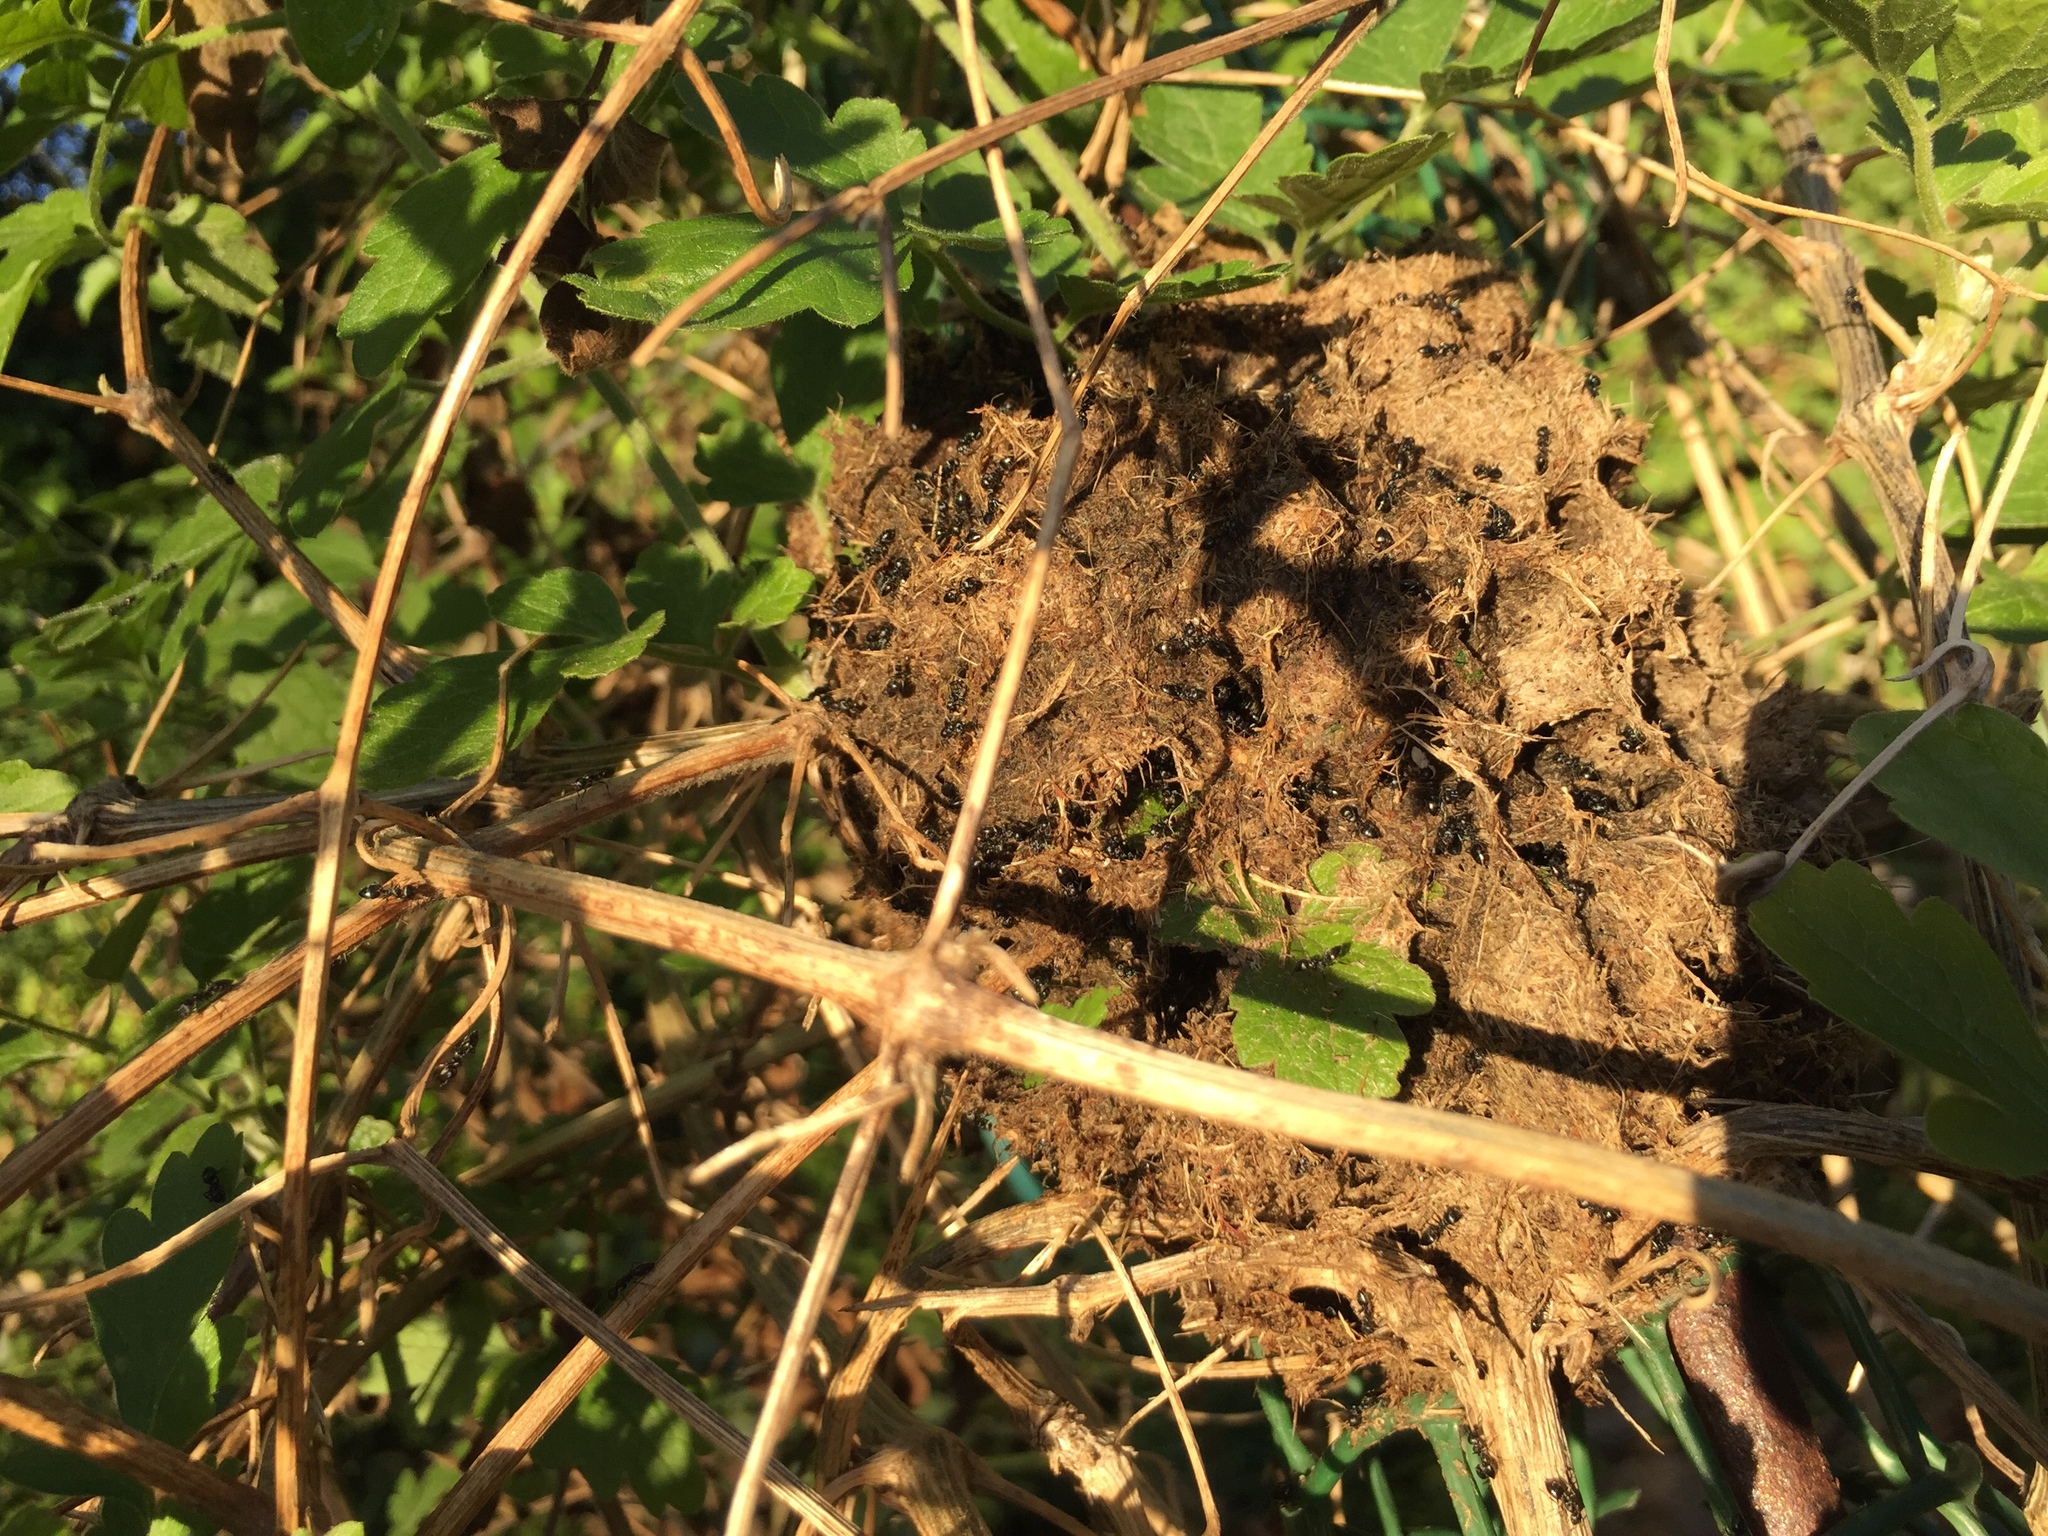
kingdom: Animalia
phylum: Arthropoda
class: Insecta
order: Hymenoptera
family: Formicidae
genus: Crematogaster
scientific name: Crematogaster peringueyi
